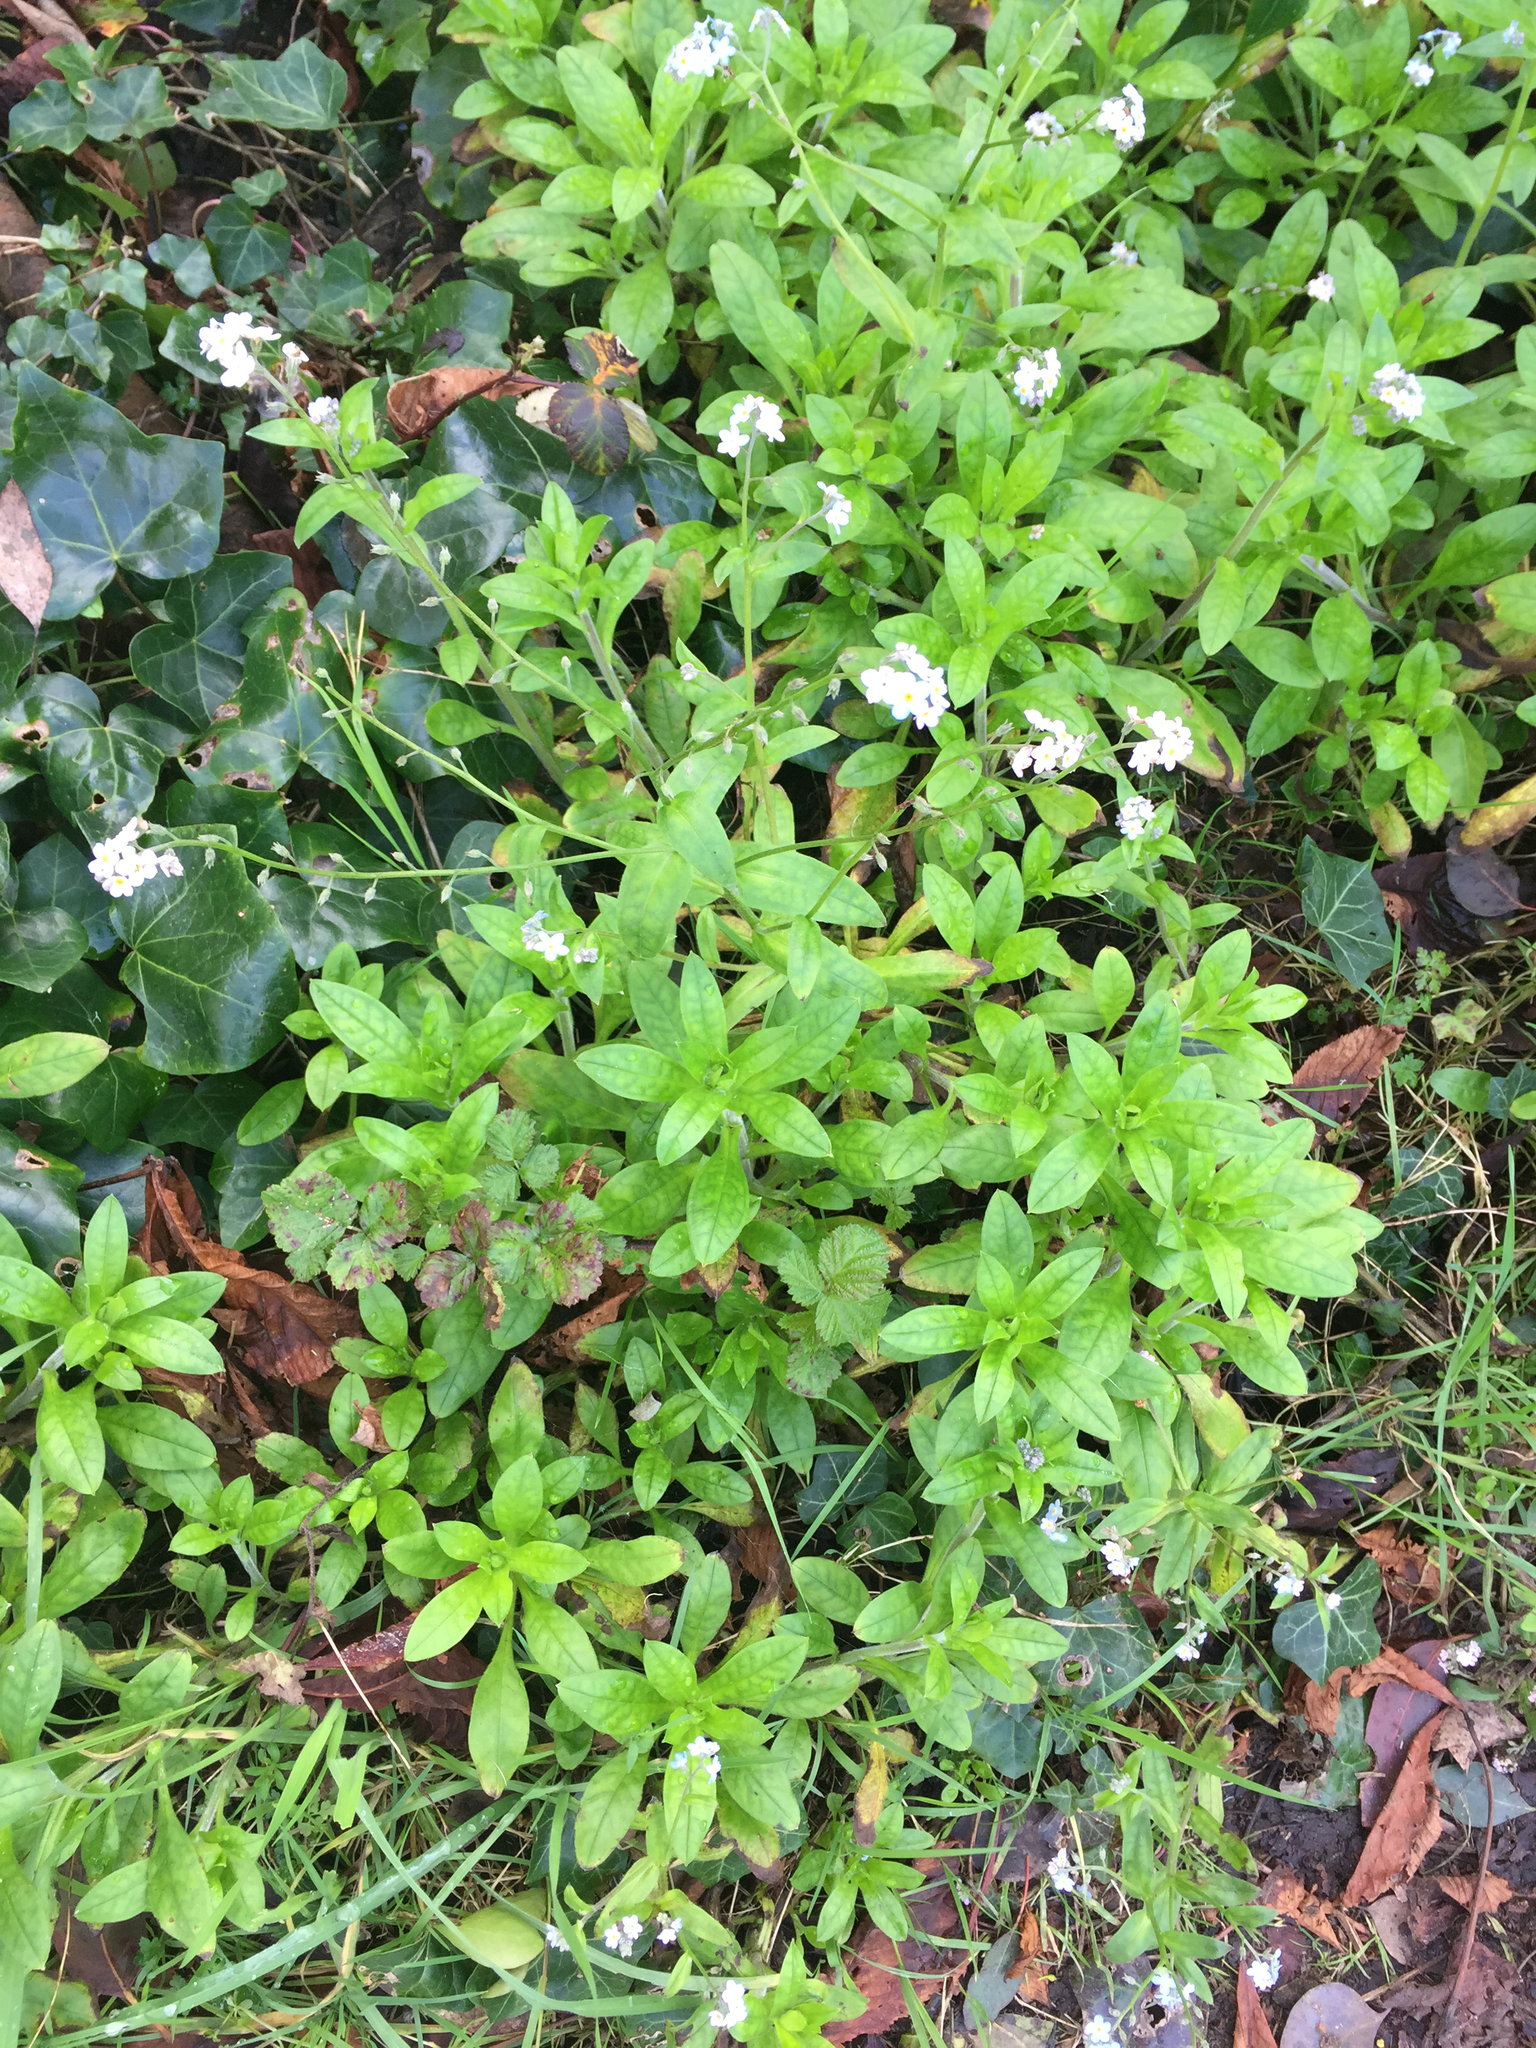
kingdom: Plantae
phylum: Tracheophyta
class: Magnoliopsida
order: Boraginales
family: Boraginaceae
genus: Myosotis
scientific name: Myosotis latifolia
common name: Broadleaf forget-me-not
